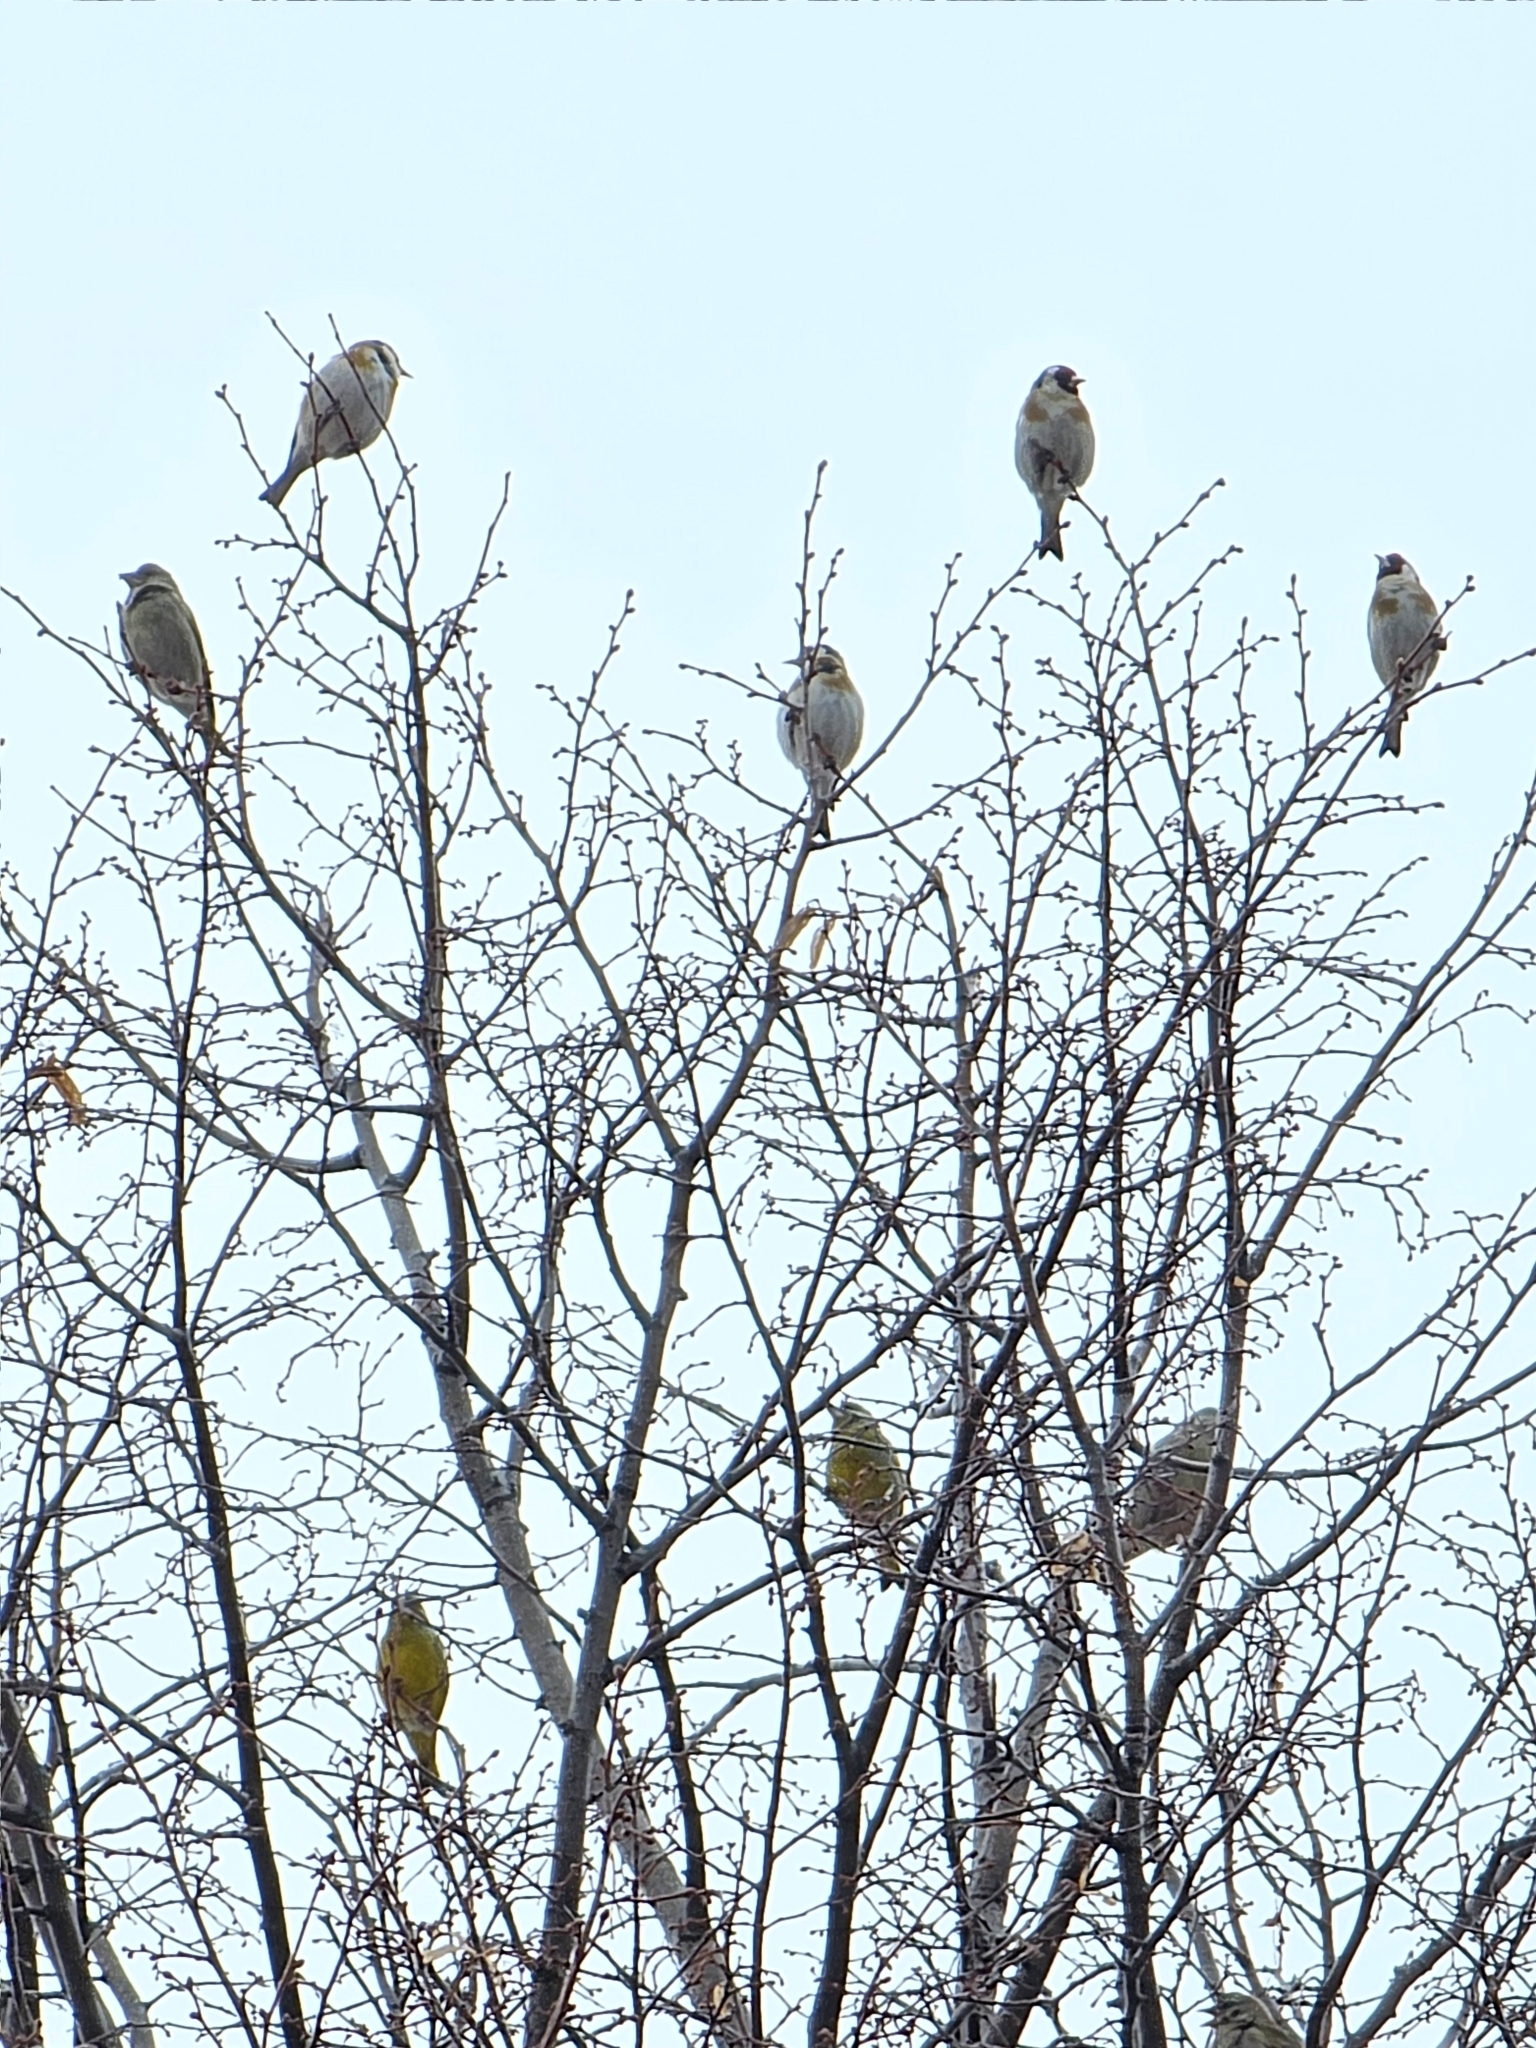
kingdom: Animalia
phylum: Chordata
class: Aves
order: Passeriformes
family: Fringillidae
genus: Carduelis
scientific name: Carduelis carduelis
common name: European goldfinch
